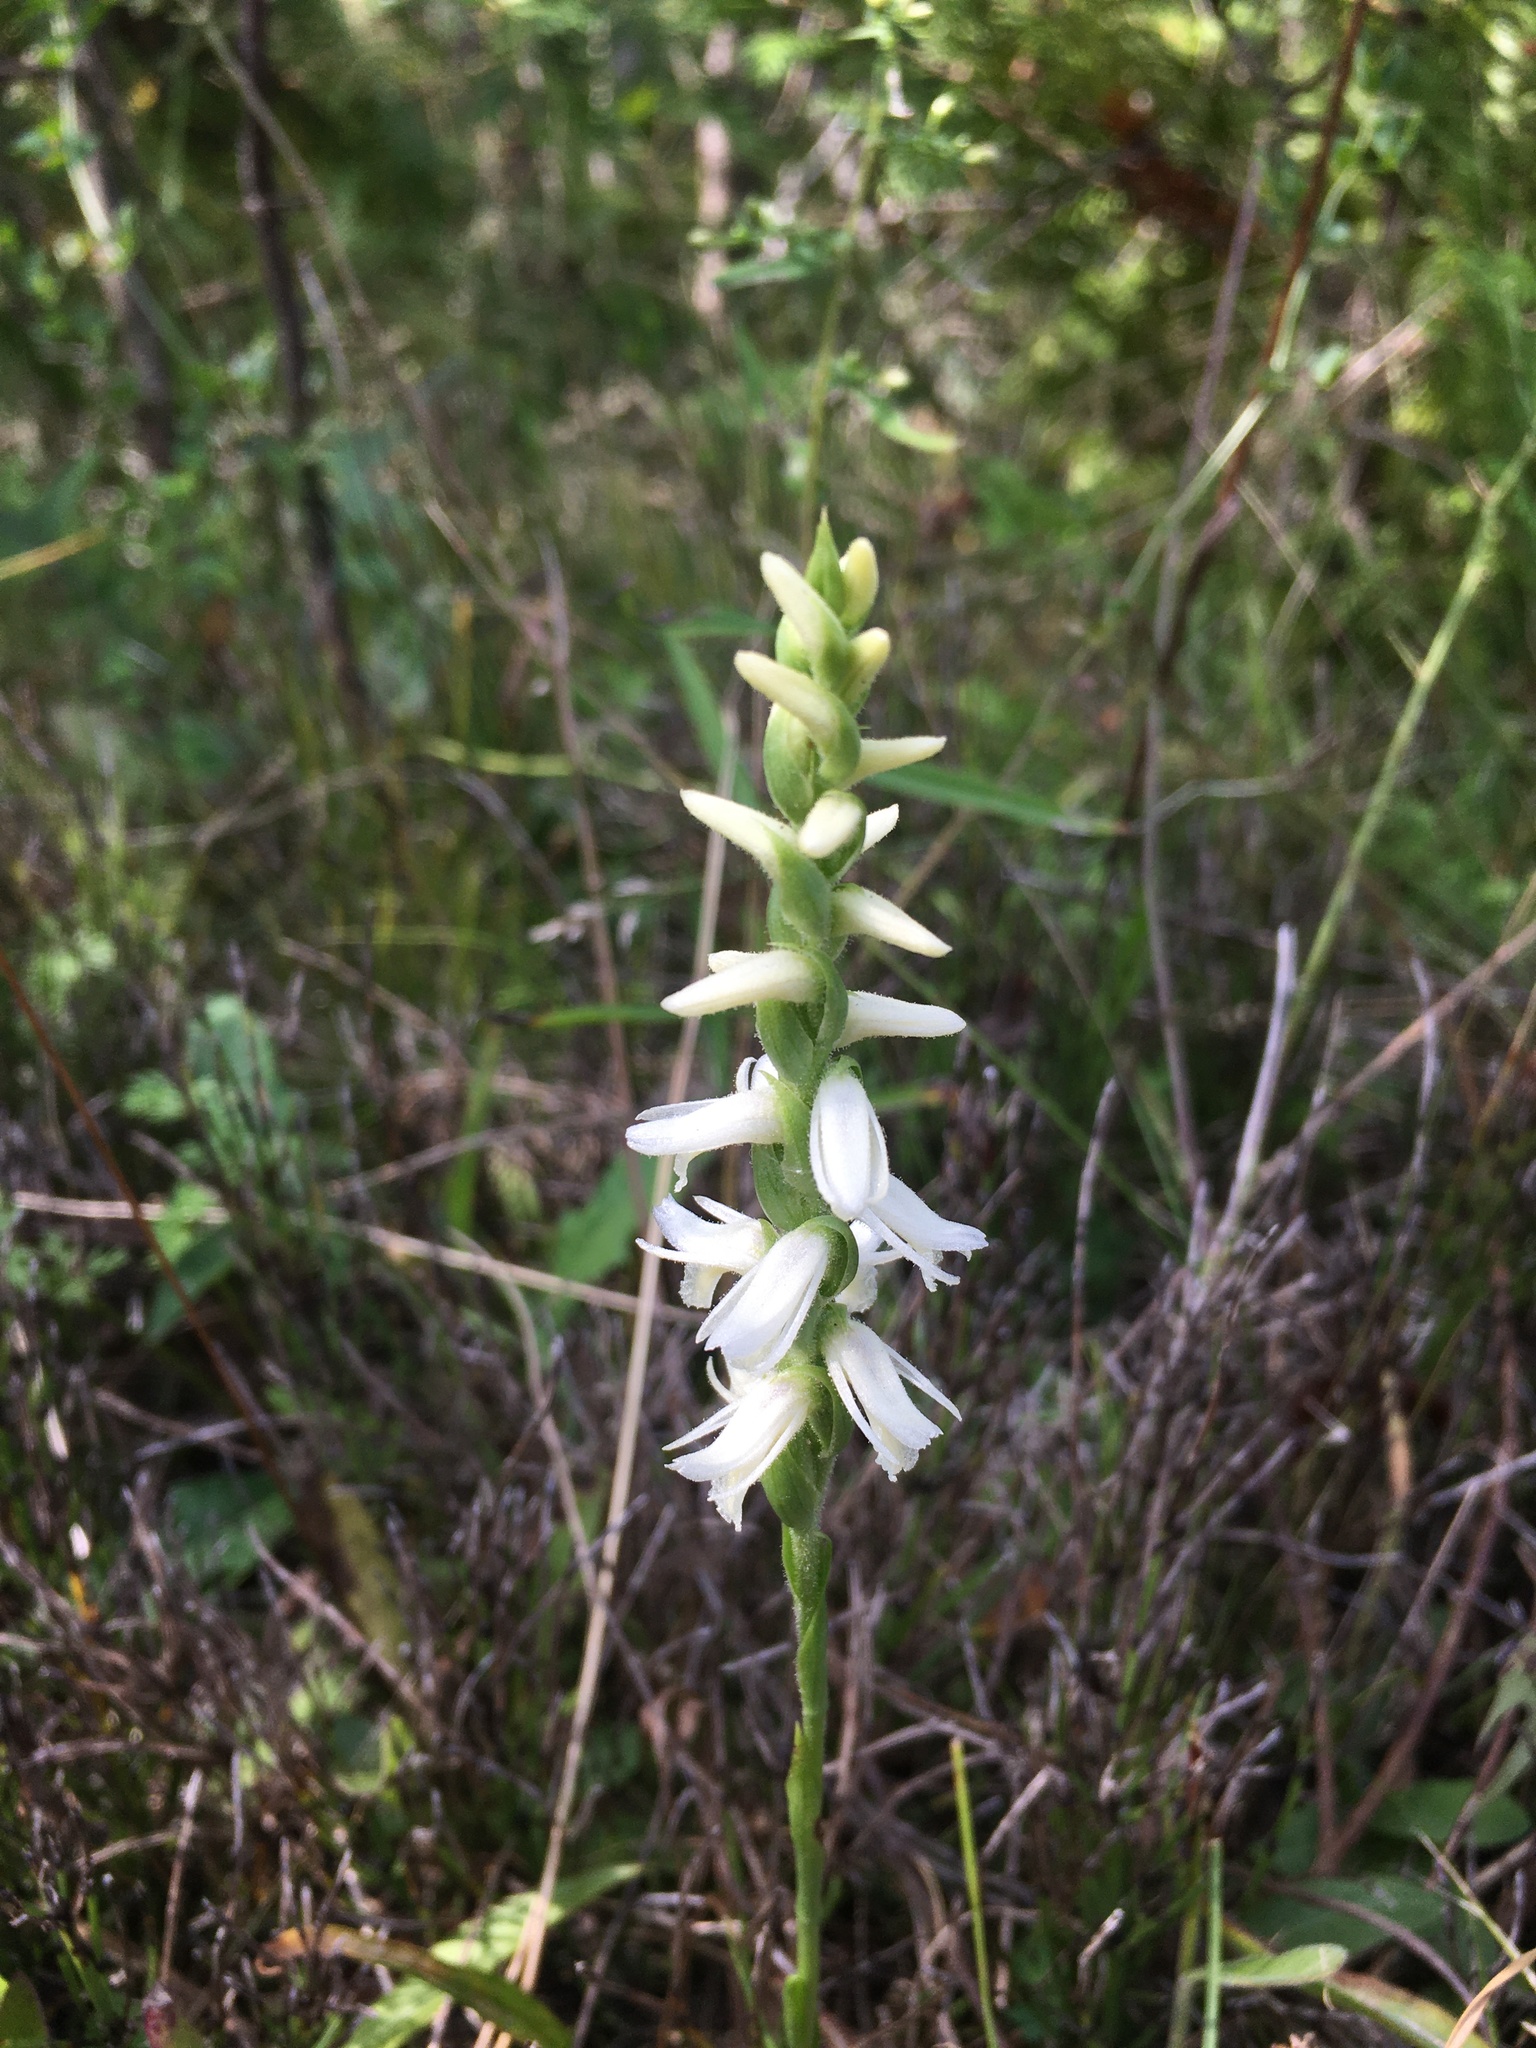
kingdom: Plantae
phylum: Tracheophyta
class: Liliopsida
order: Asparagales
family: Orchidaceae
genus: Spiranthes
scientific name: Spiranthes magnicamporum
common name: Great plains ladies'-tresses
